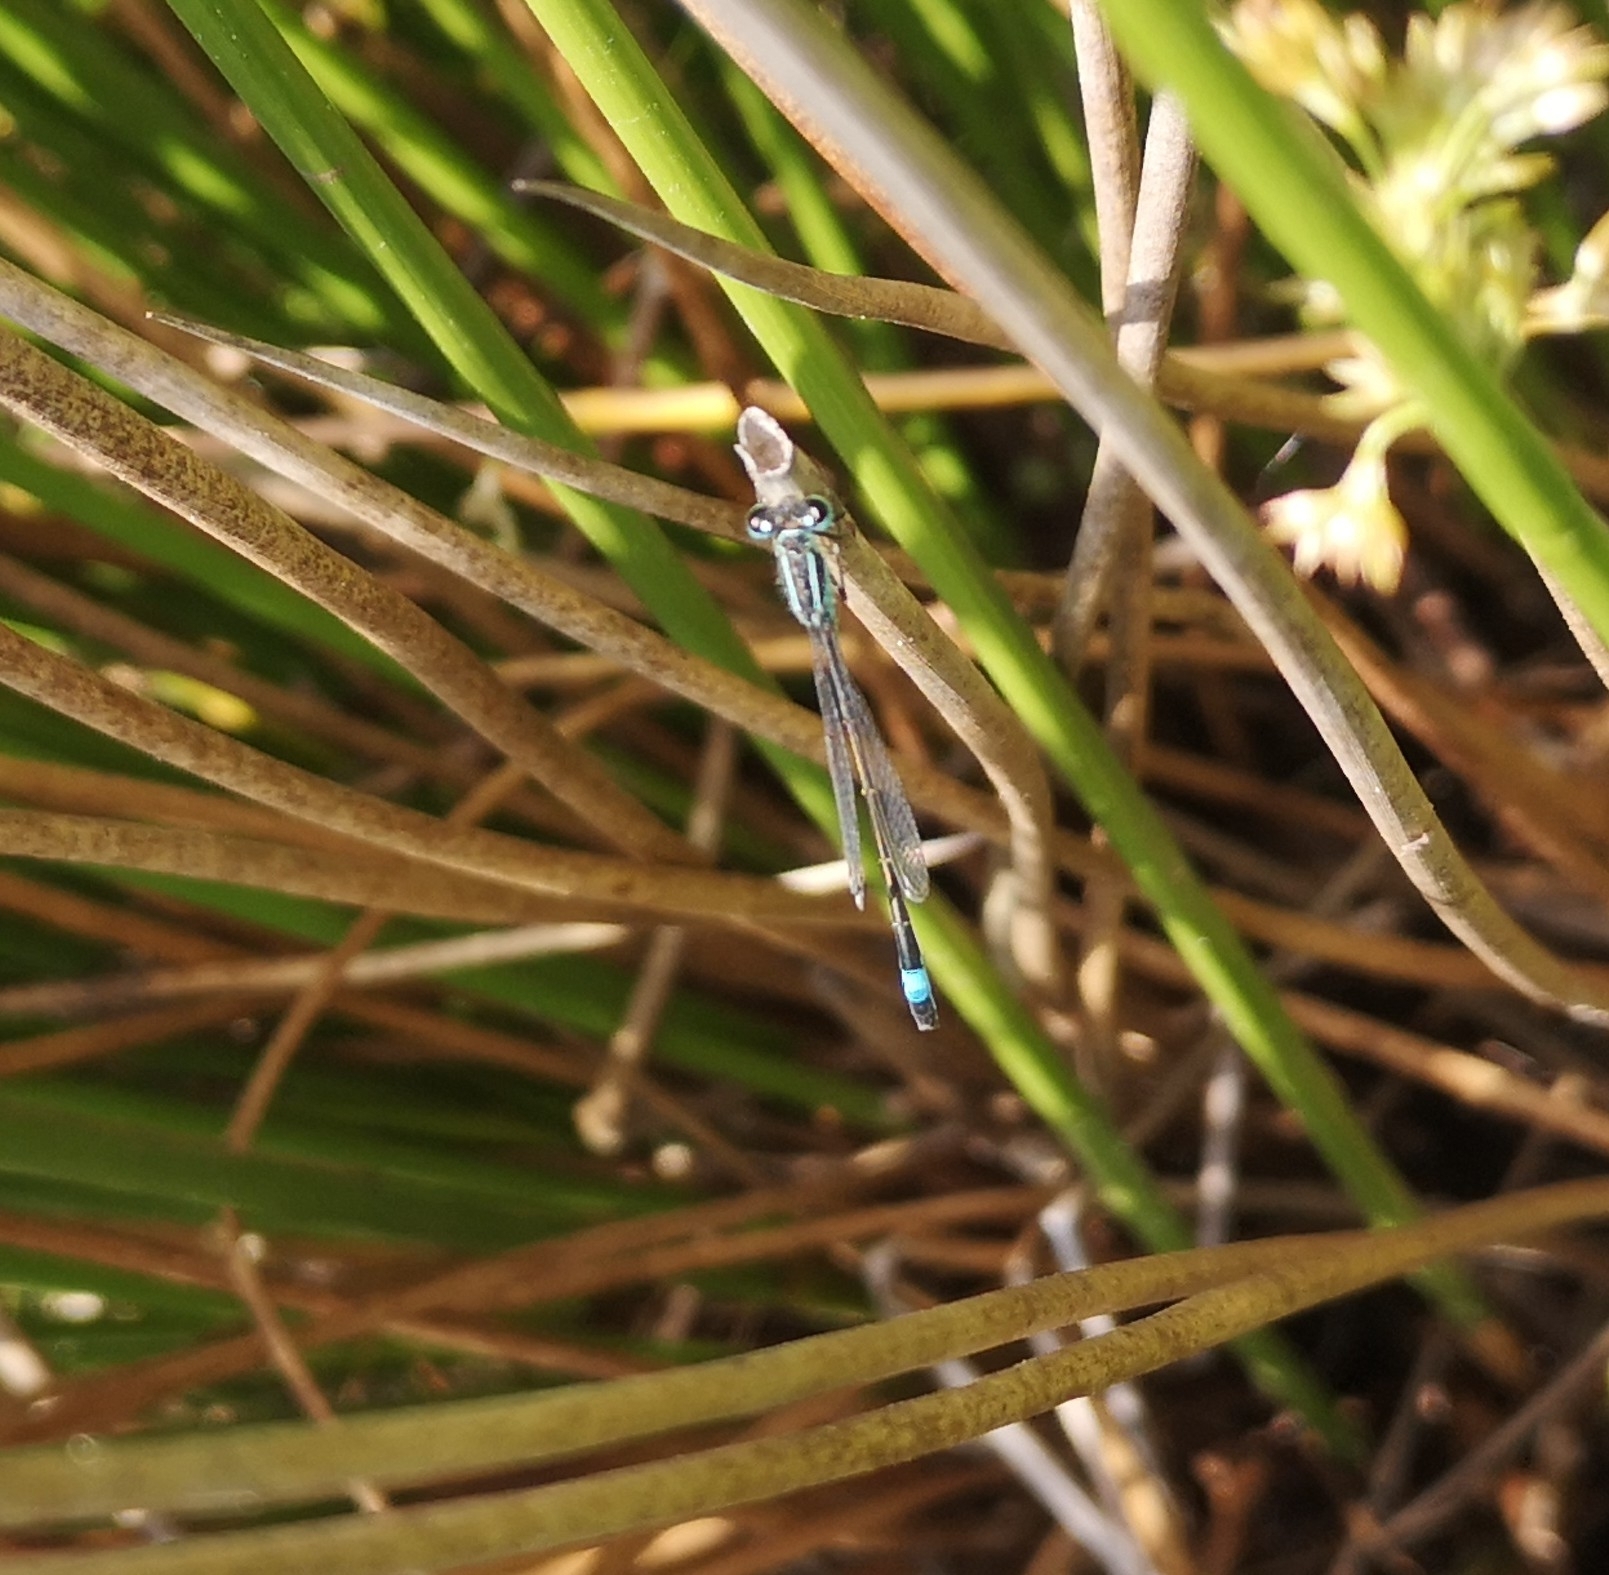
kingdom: Animalia
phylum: Arthropoda
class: Insecta
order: Odonata
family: Coenagrionidae
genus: Ischnura
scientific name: Ischnura elegans
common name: Blue-tailed damselfly
